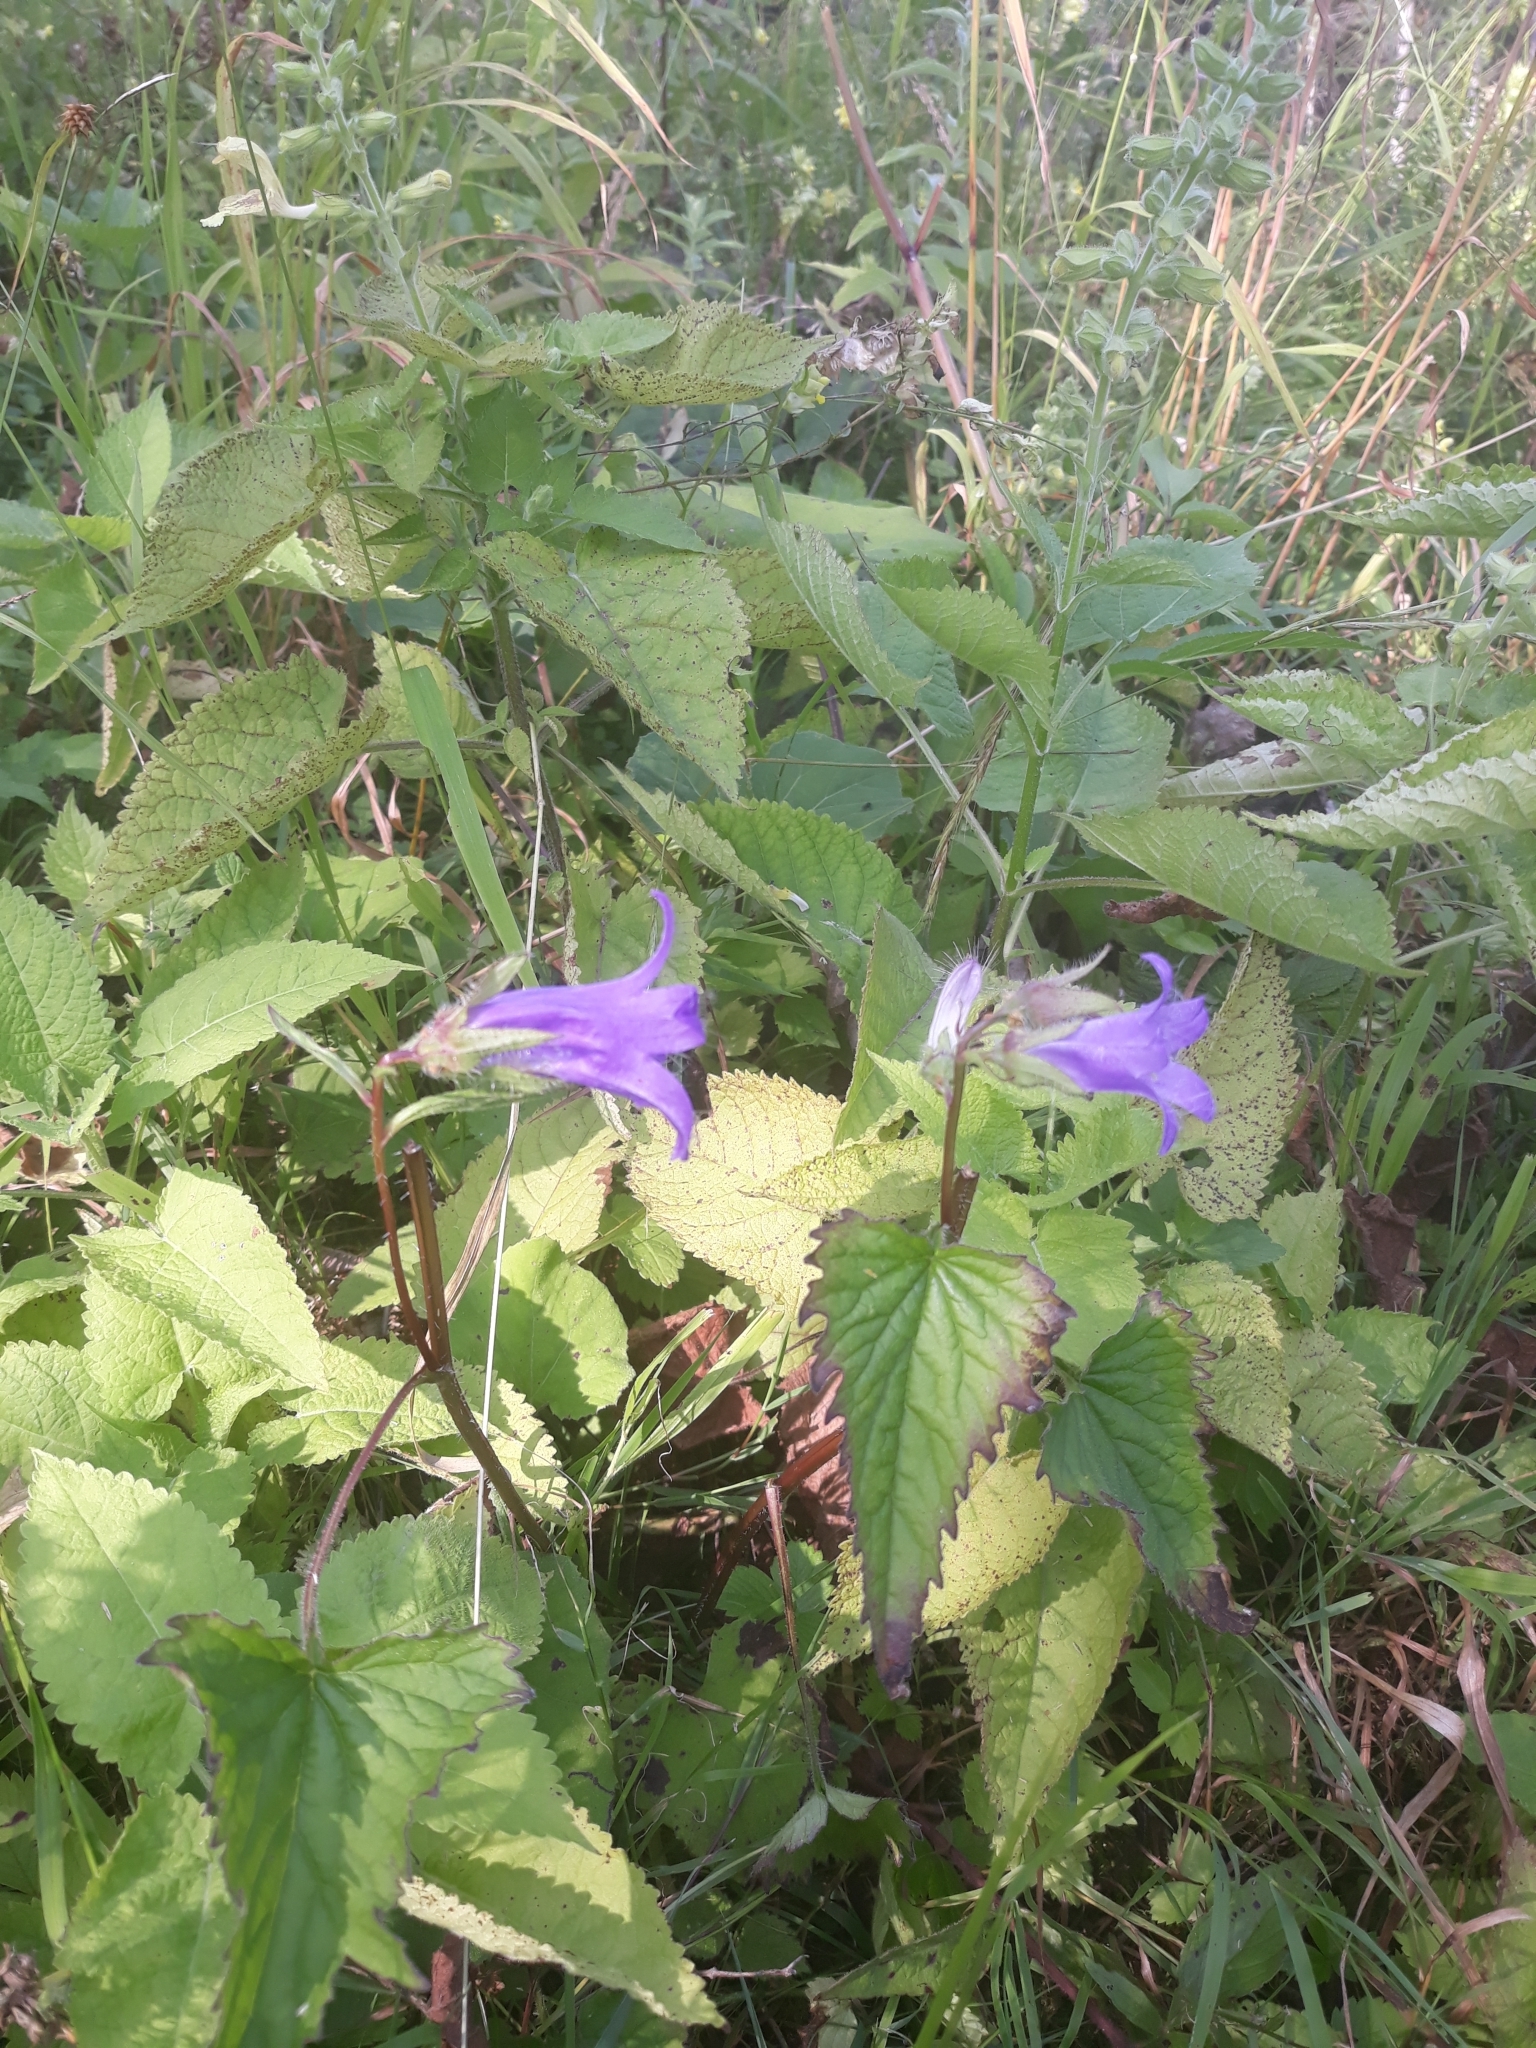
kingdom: Plantae
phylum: Tracheophyta
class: Magnoliopsida
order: Asterales
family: Campanulaceae
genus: Campanula
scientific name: Campanula trachelium
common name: Nettle-leaved bellflower
